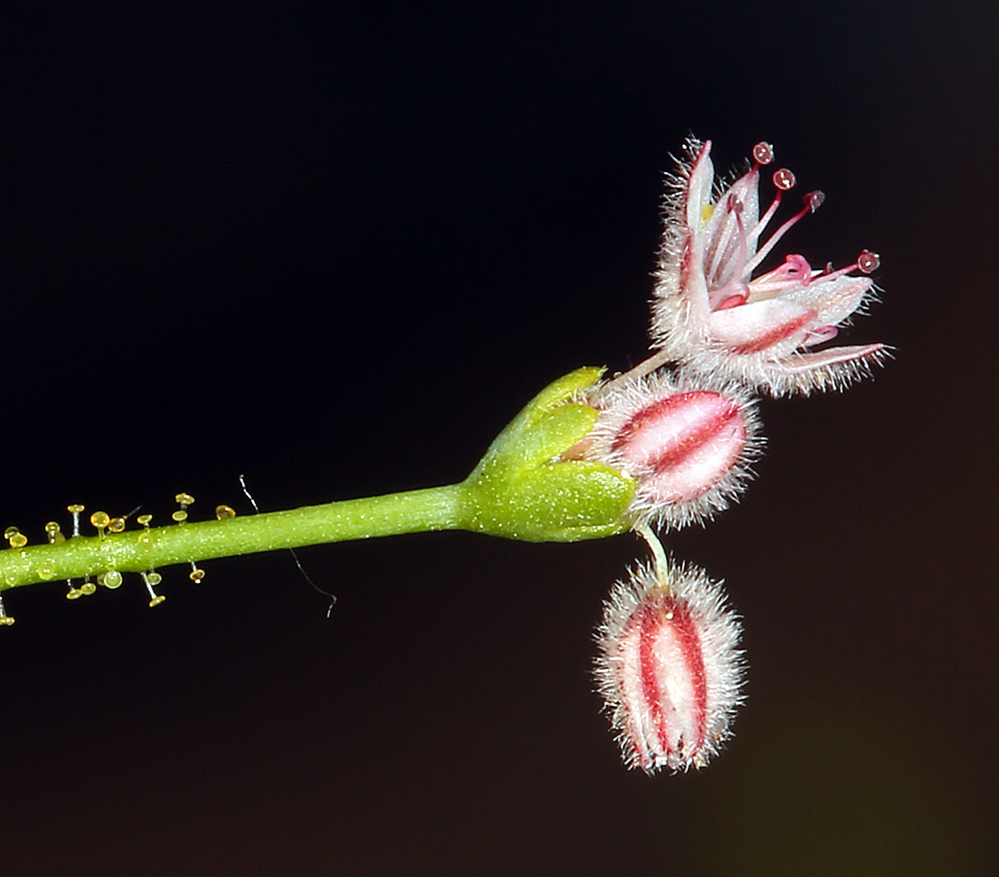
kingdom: Plantae
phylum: Tracheophyta
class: Magnoliopsida
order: Caryophyllales
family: Polygonaceae
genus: Eriogonum
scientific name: Eriogonum glandulosum
